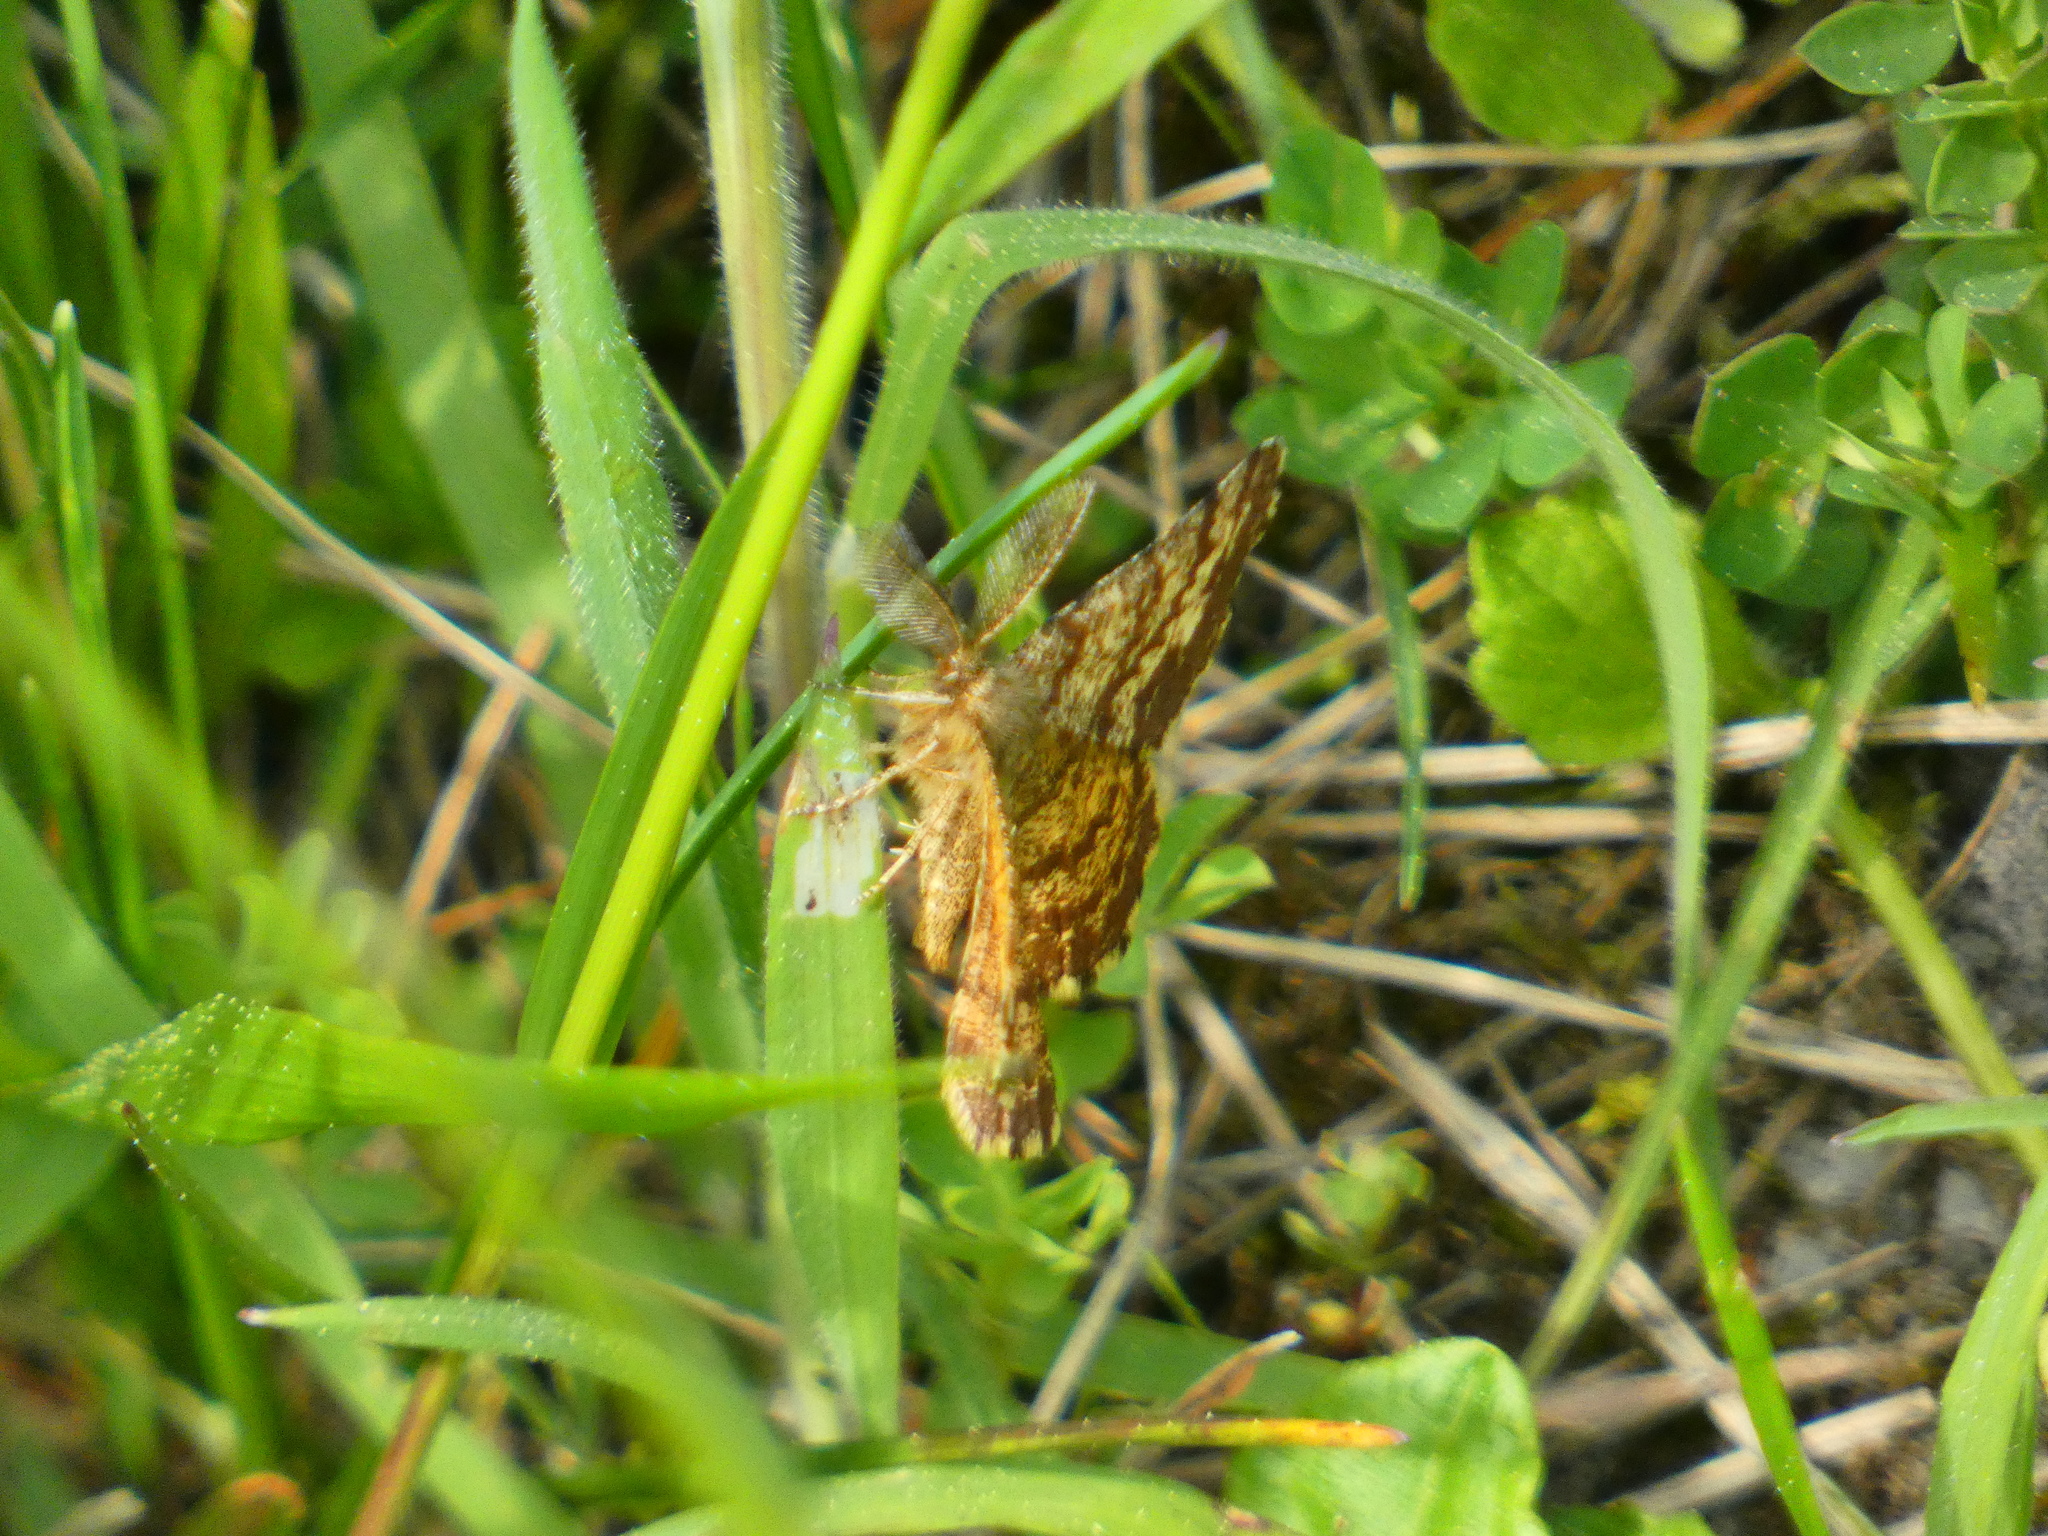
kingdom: Animalia
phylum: Arthropoda
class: Insecta
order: Lepidoptera
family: Geometridae
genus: Ematurga
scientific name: Ematurga atomaria
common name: Common heath
